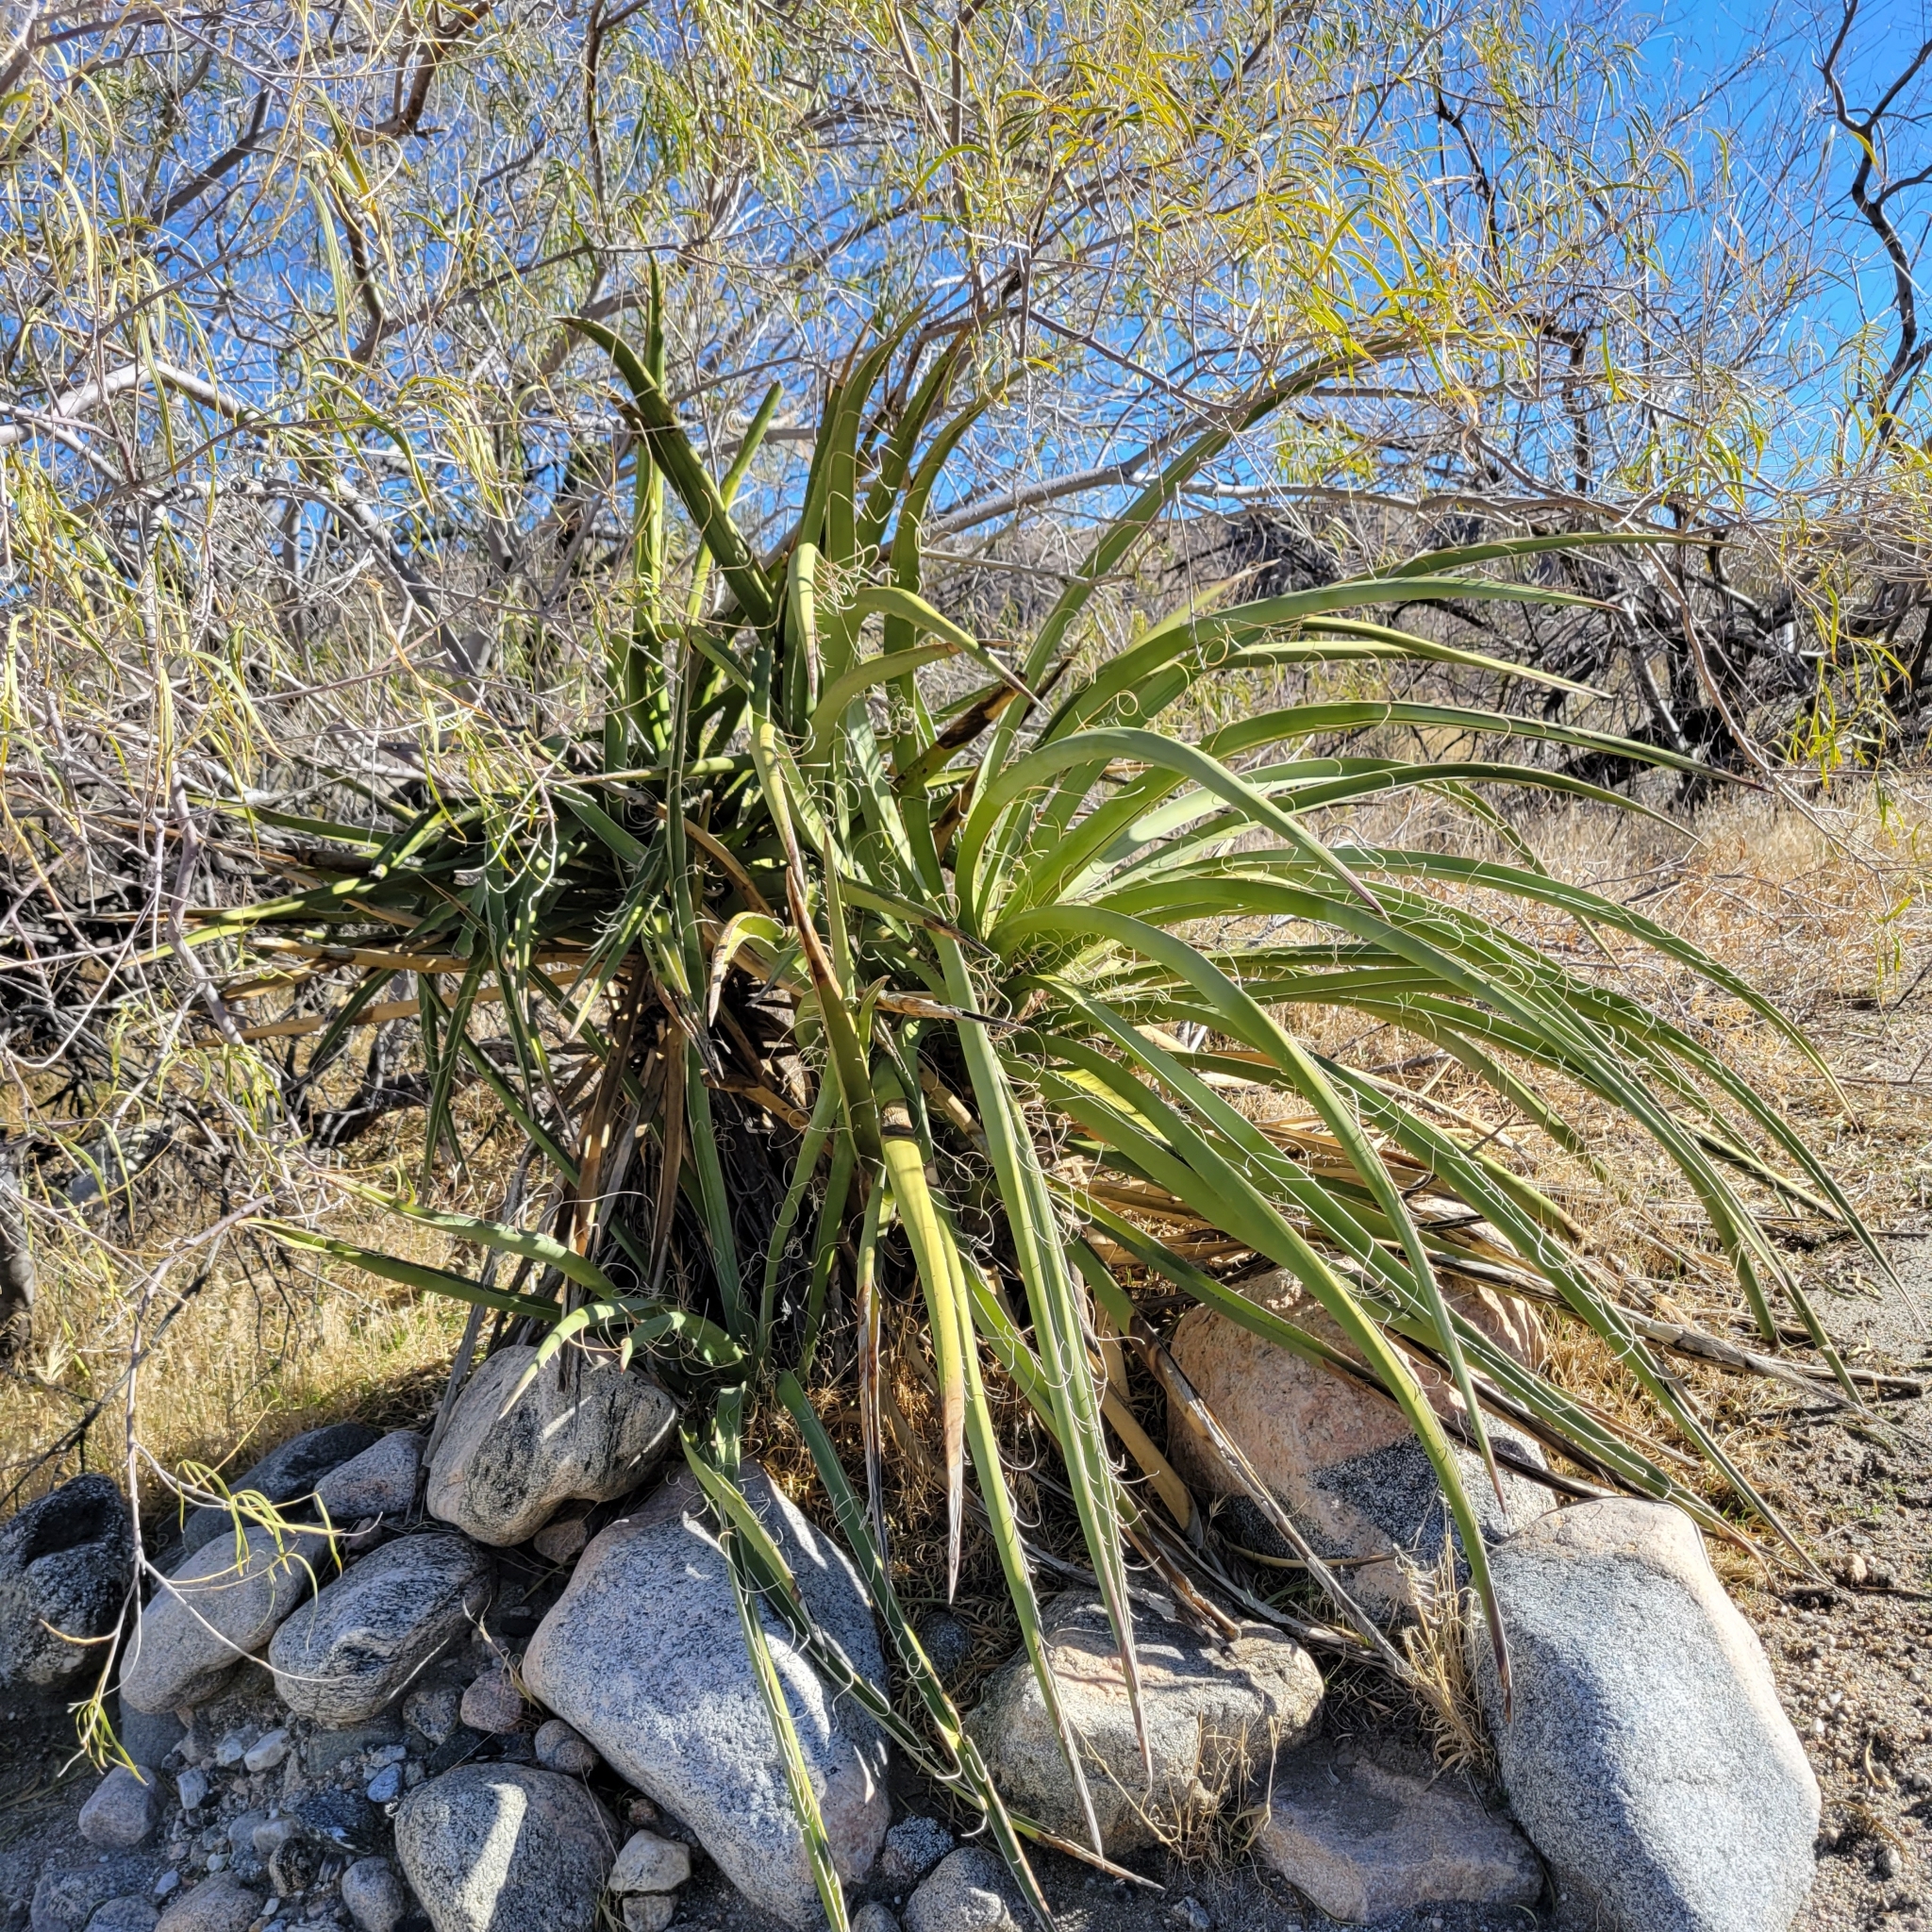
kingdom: Plantae
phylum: Tracheophyta
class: Liliopsida
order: Asparagales
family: Asparagaceae
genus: Yucca
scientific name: Yucca schidigera
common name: Mojave yucca
